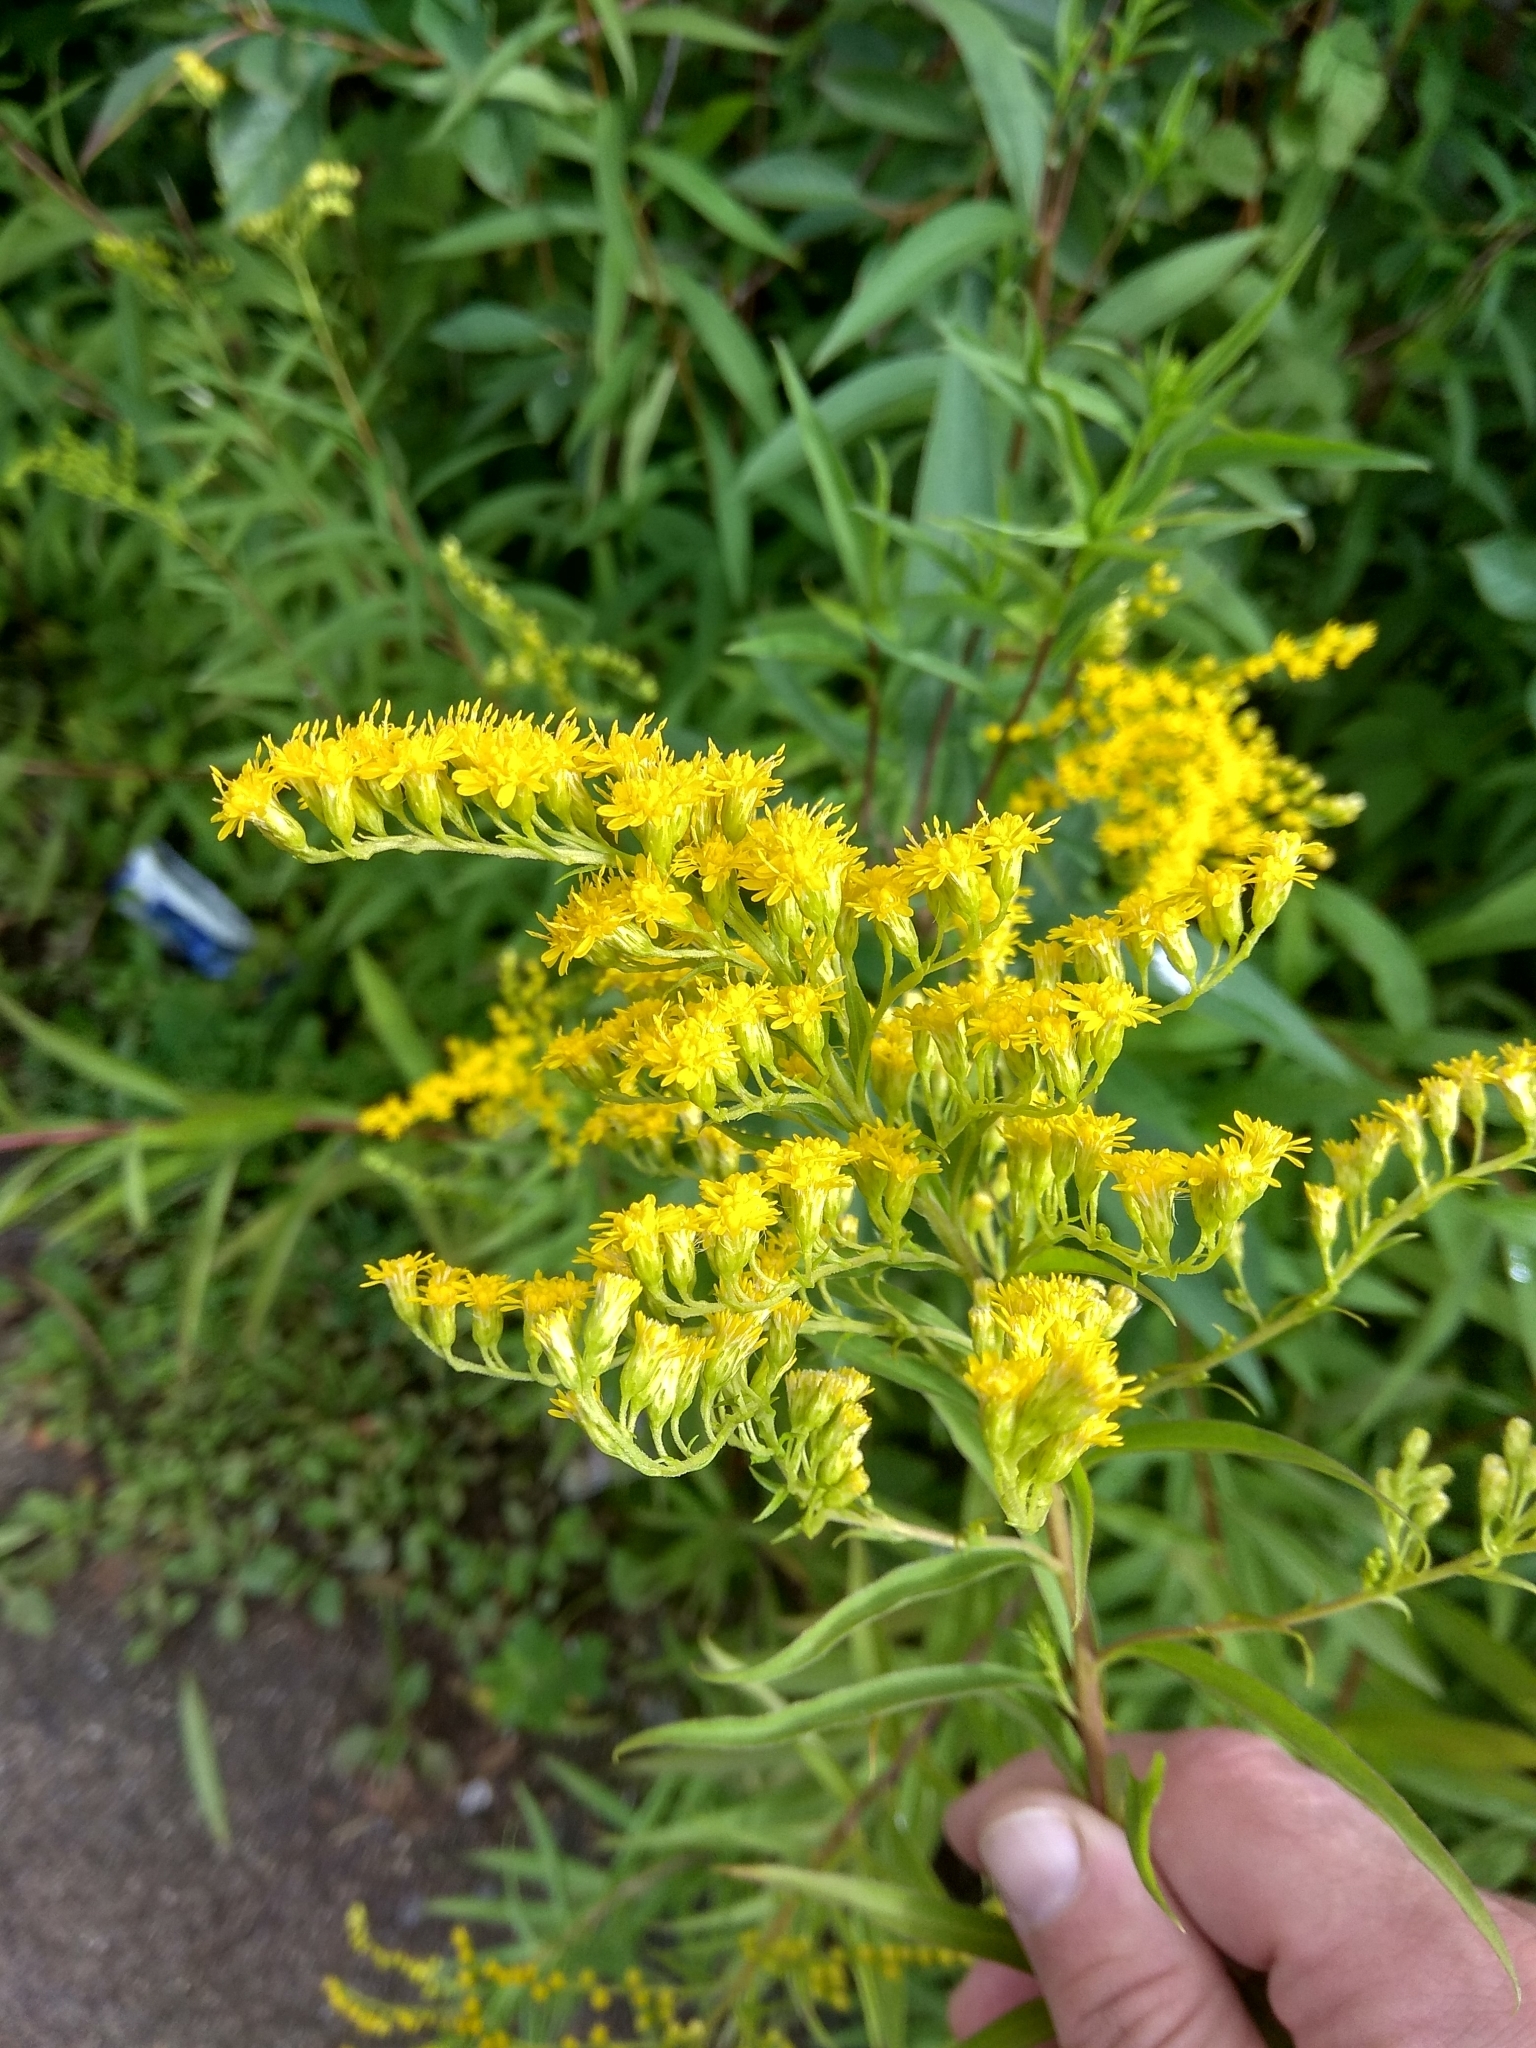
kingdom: Plantae
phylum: Tracheophyta
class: Magnoliopsida
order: Asterales
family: Asteraceae
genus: Solidago
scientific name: Solidago gigantea
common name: Giant goldenrod
